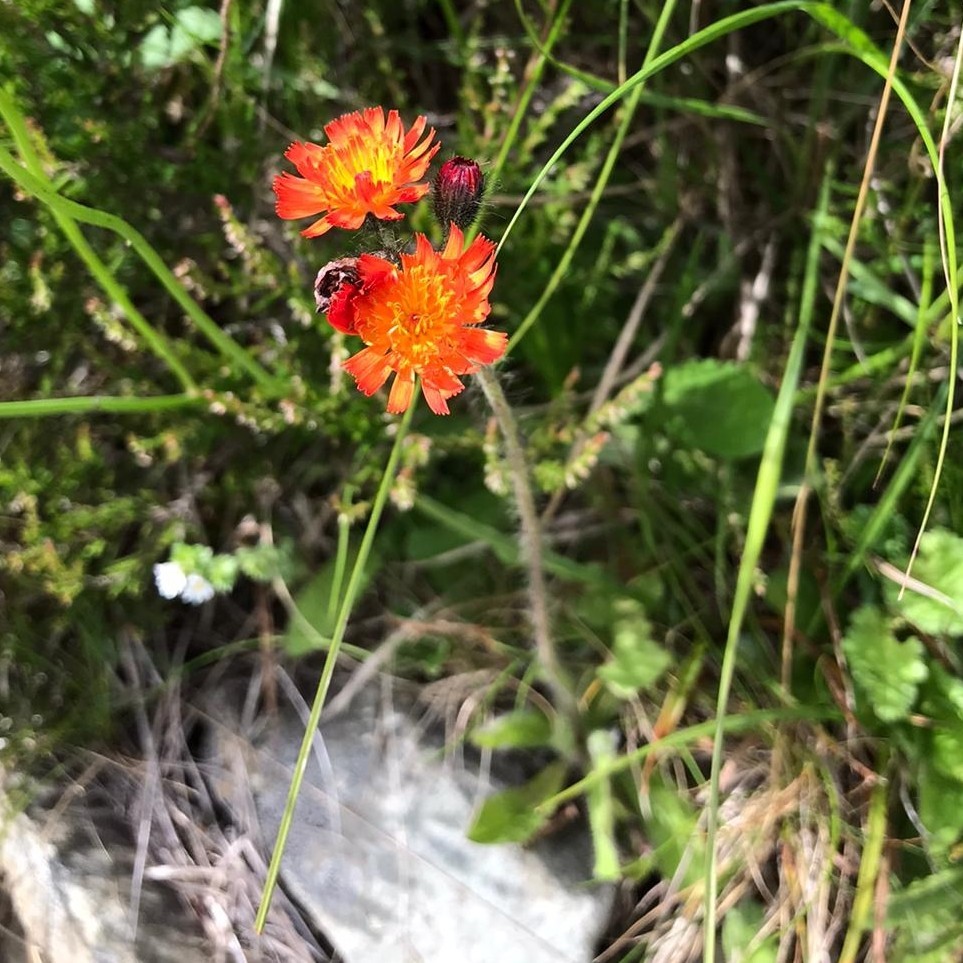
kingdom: Plantae
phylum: Tracheophyta
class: Magnoliopsida
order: Asterales
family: Asteraceae
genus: Pilosella
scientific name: Pilosella aurantiaca
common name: Fox-and-cubs
